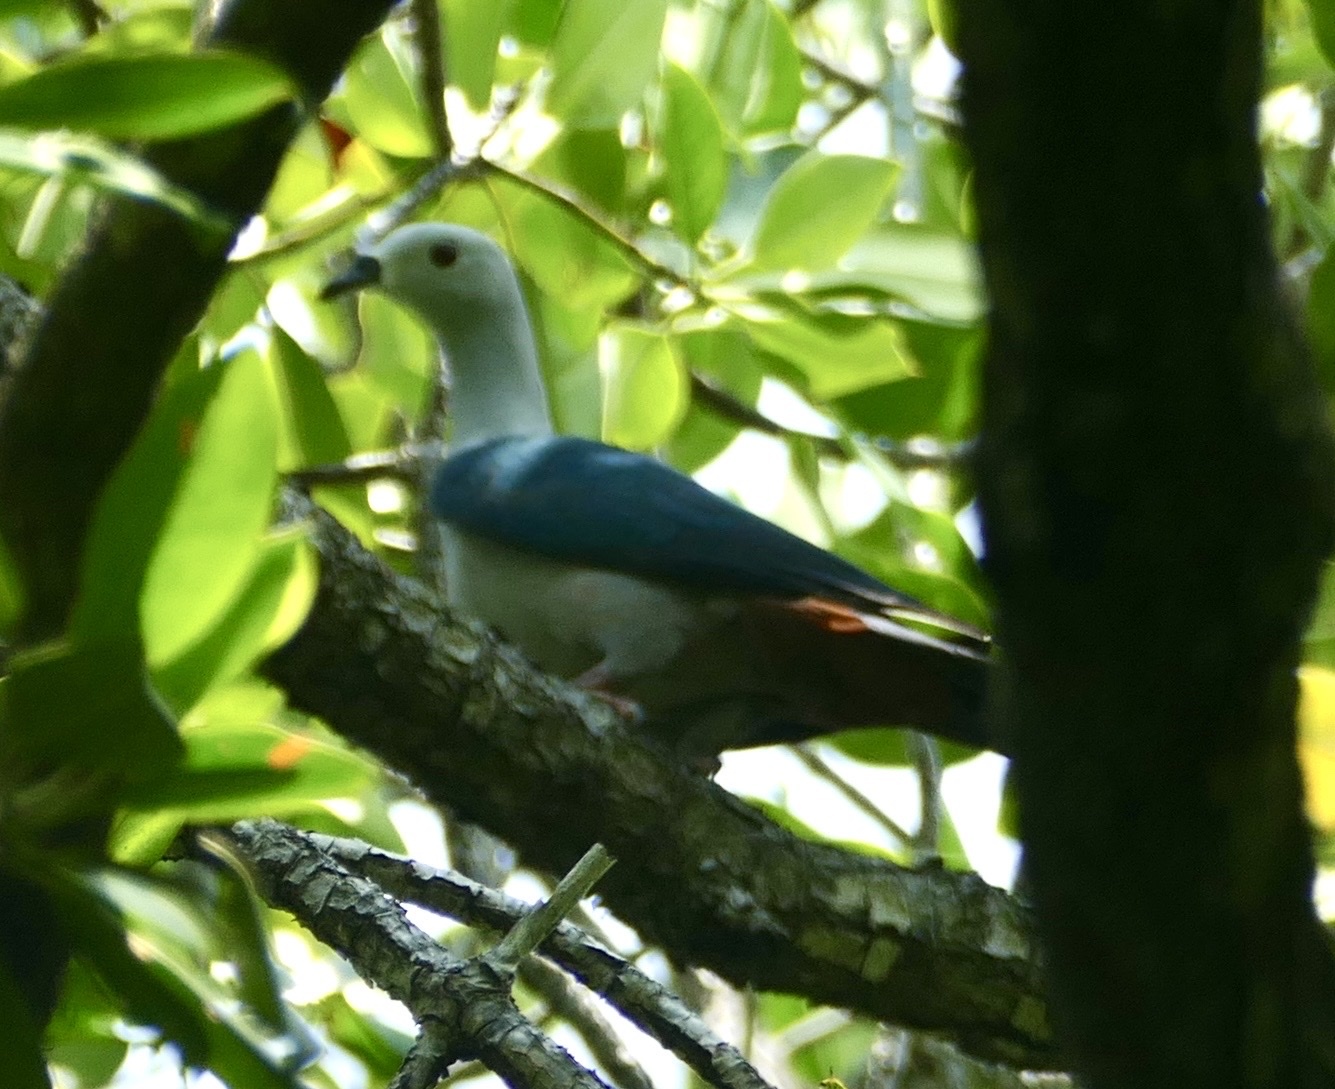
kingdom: Animalia
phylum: Chordata
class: Aves
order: Columbiformes
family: Columbidae
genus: Ducula
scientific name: Ducula myristicivora
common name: Spice imperial pigeon
